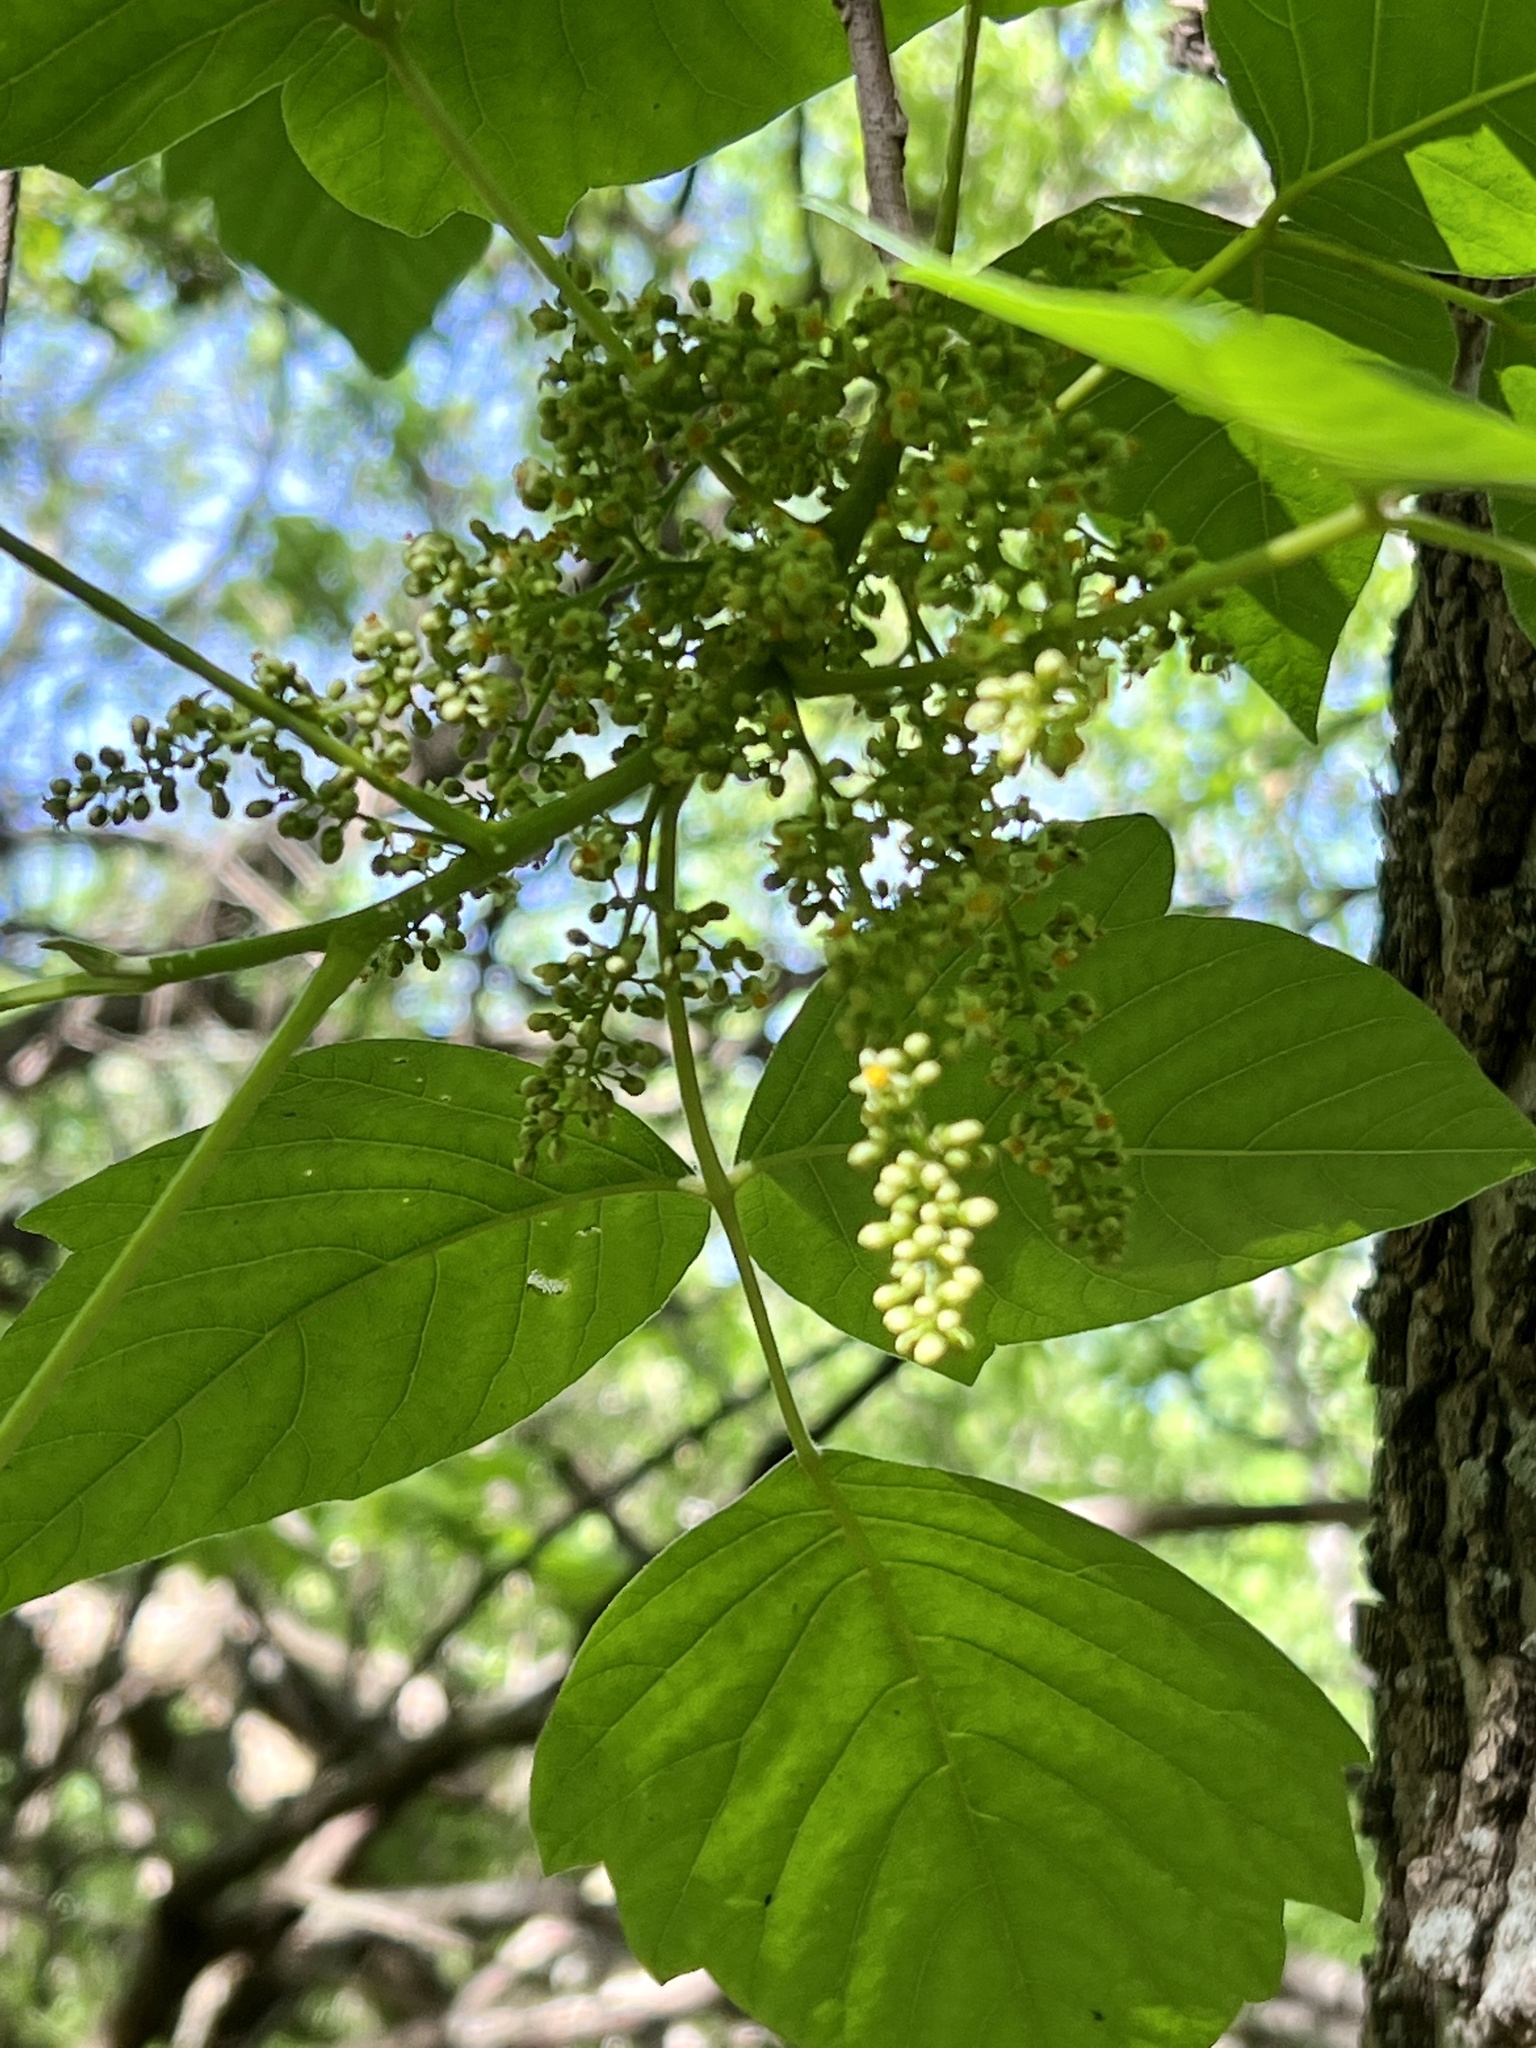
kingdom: Plantae
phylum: Tracheophyta
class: Magnoliopsida
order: Sapindales
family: Anacardiaceae
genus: Toxicodendron
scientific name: Toxicodendron radicans
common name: Poison ivy
